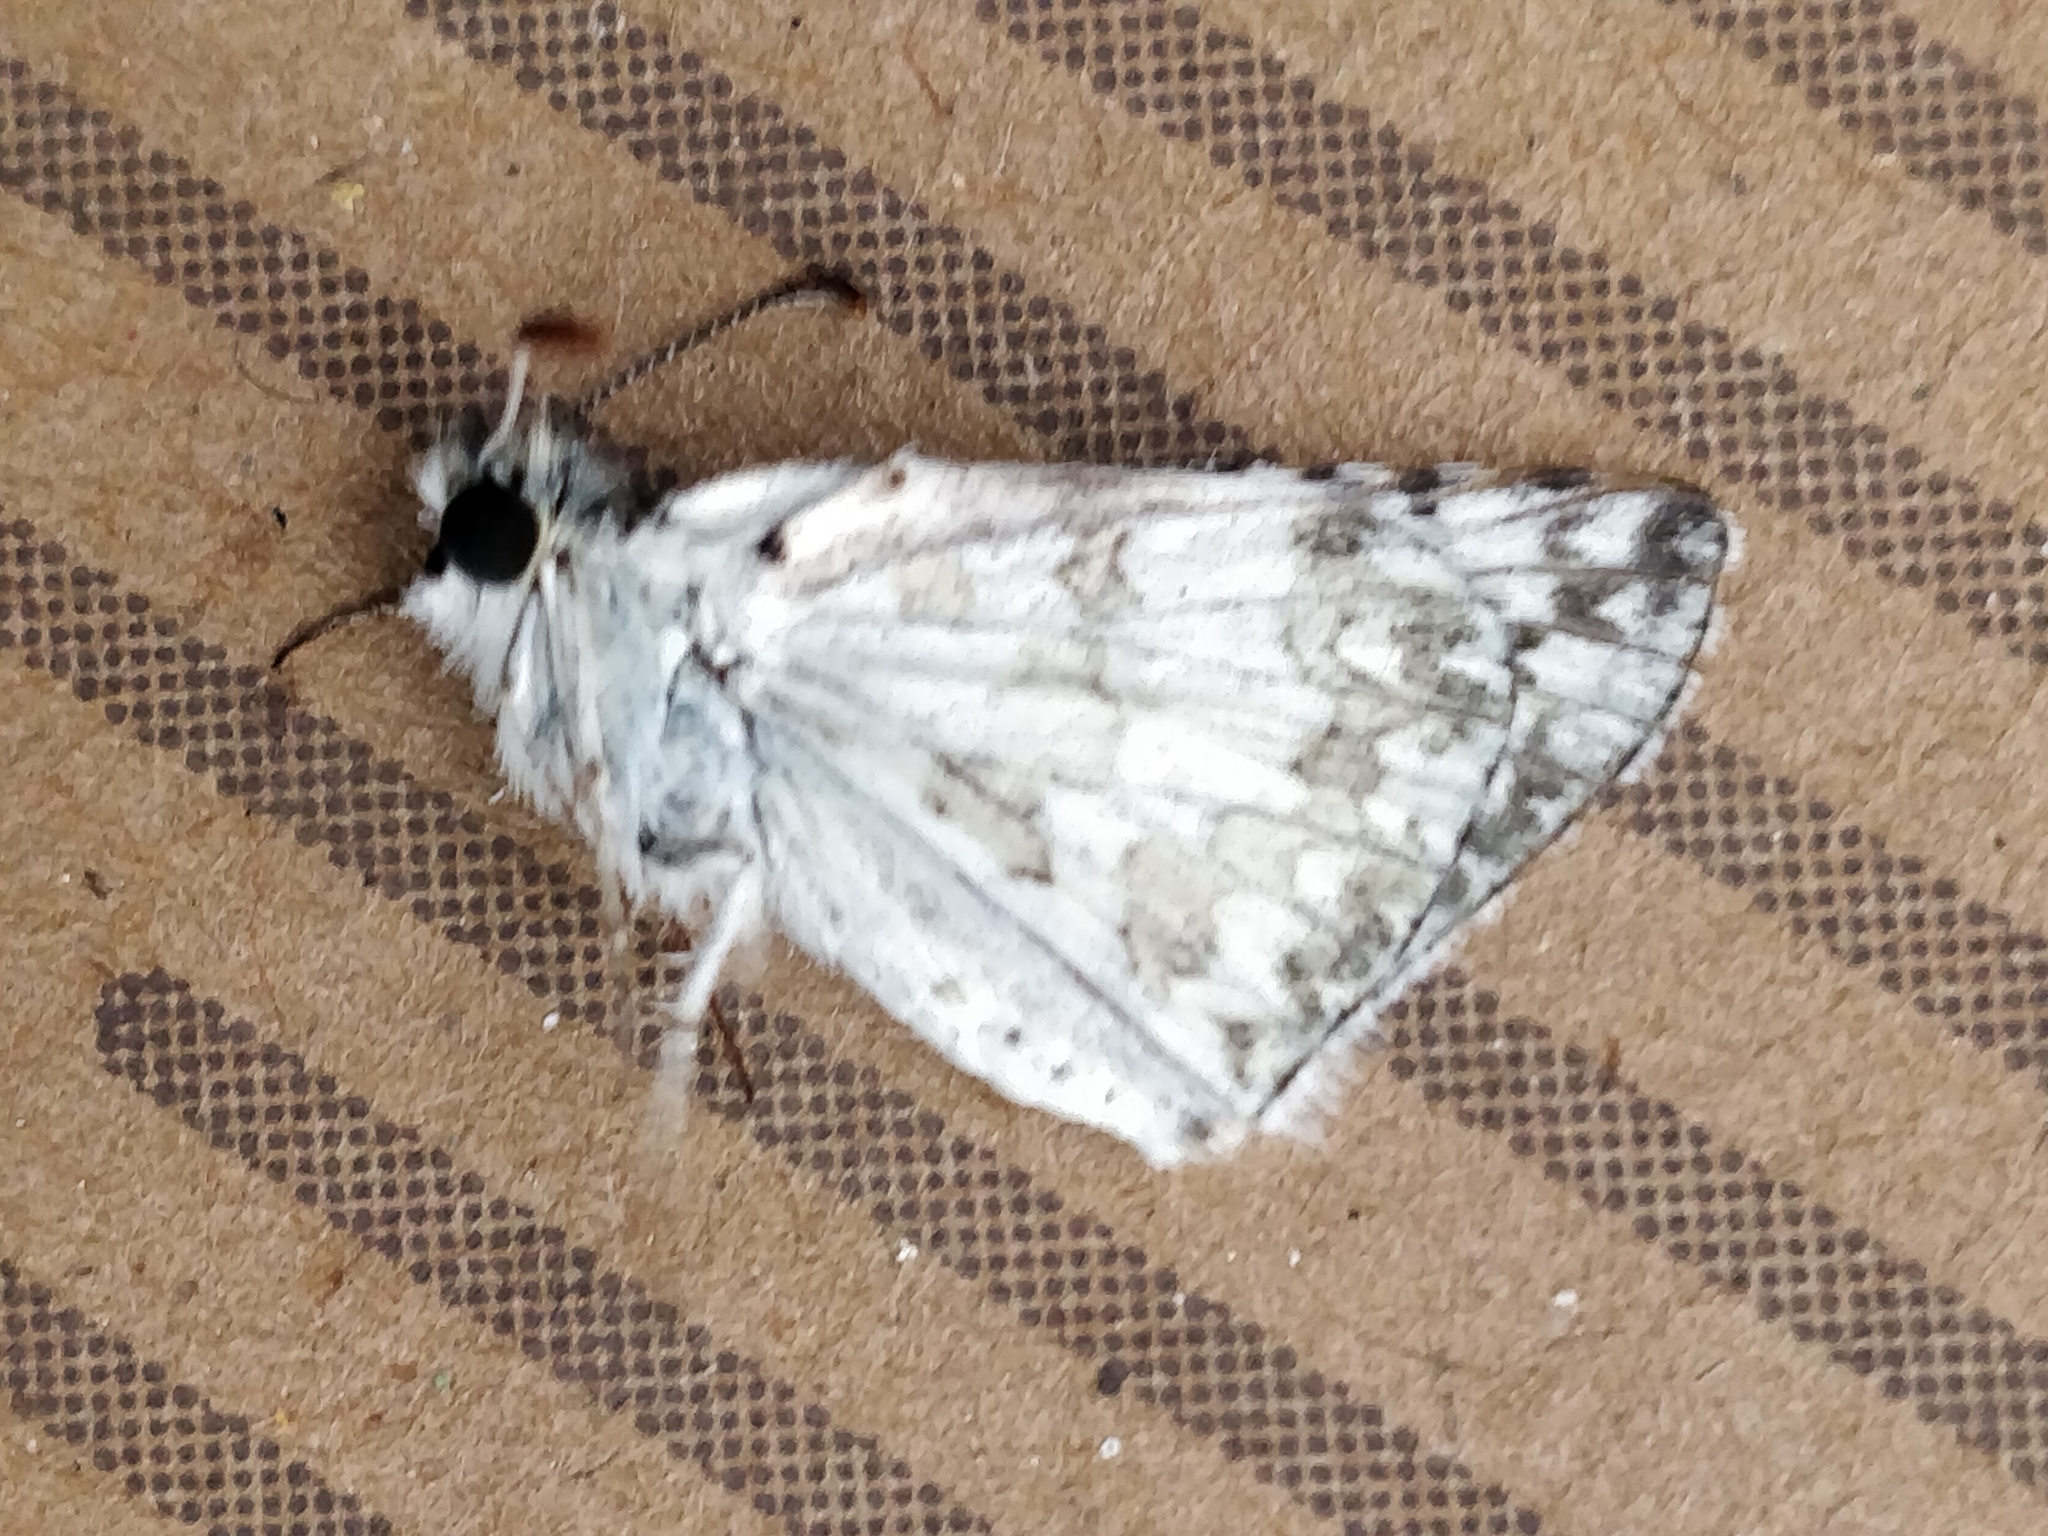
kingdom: Animalia
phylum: Arthropoda
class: Insecta
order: Lepidoptera
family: Hesperiidae
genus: Burnsius
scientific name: Burnsius communis
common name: Common checkered-skipper
